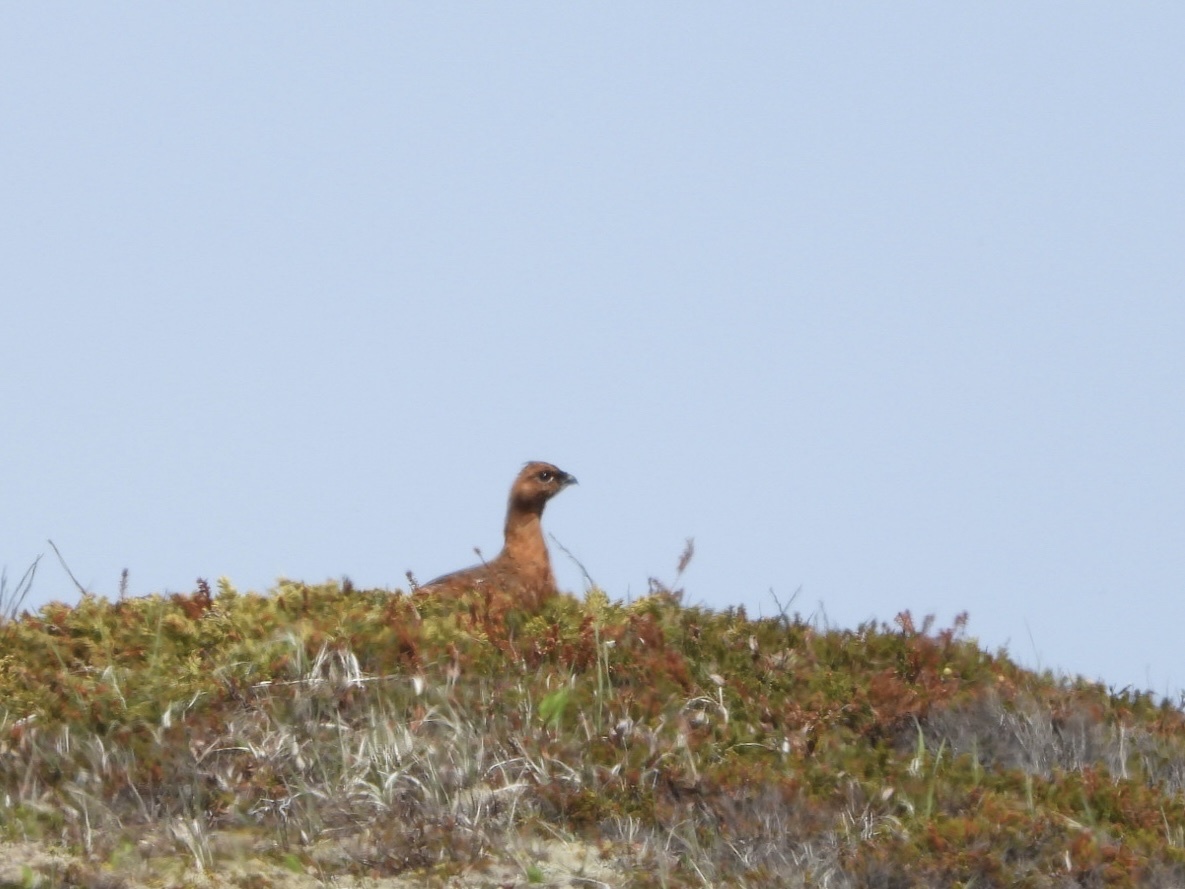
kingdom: Animalia
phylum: Chordata
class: Aves
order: Galliformes
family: Phasianidae
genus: Lagopus
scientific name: Lagopus lagopus
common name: Willow ptarmigan
